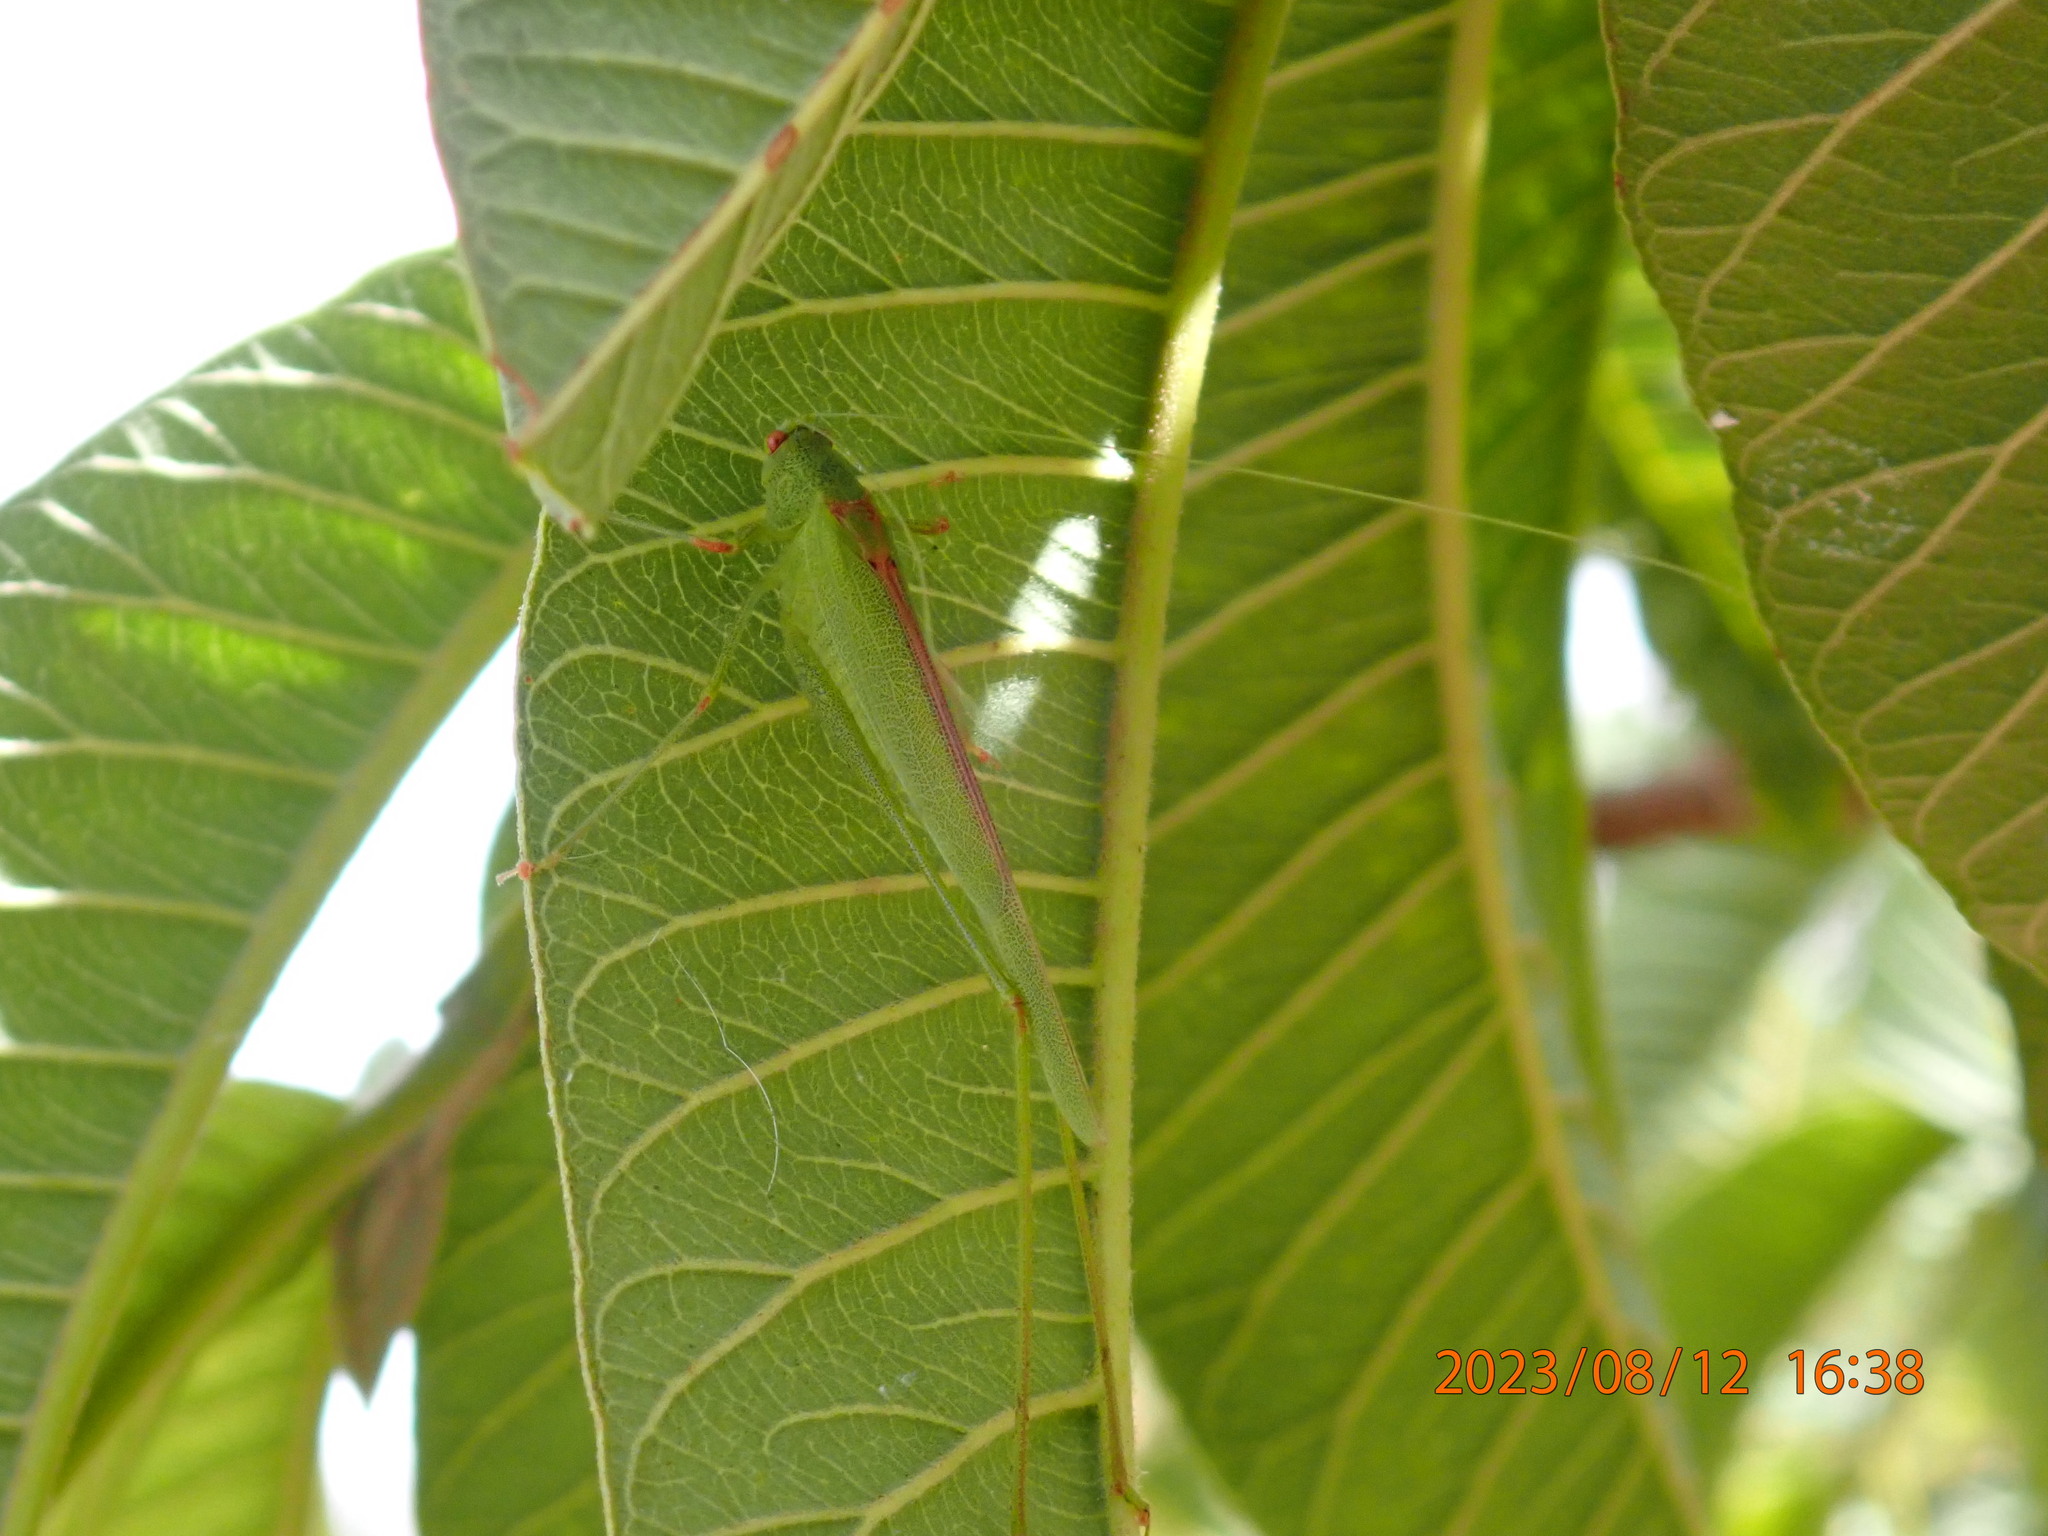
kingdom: Animalia
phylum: Arthropoda
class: Insecta
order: Orthoptera
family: Tettigoniidae
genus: Phaneroptera
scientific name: Phaneroptera sparsa
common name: Sickle-bearing leaf katydid
